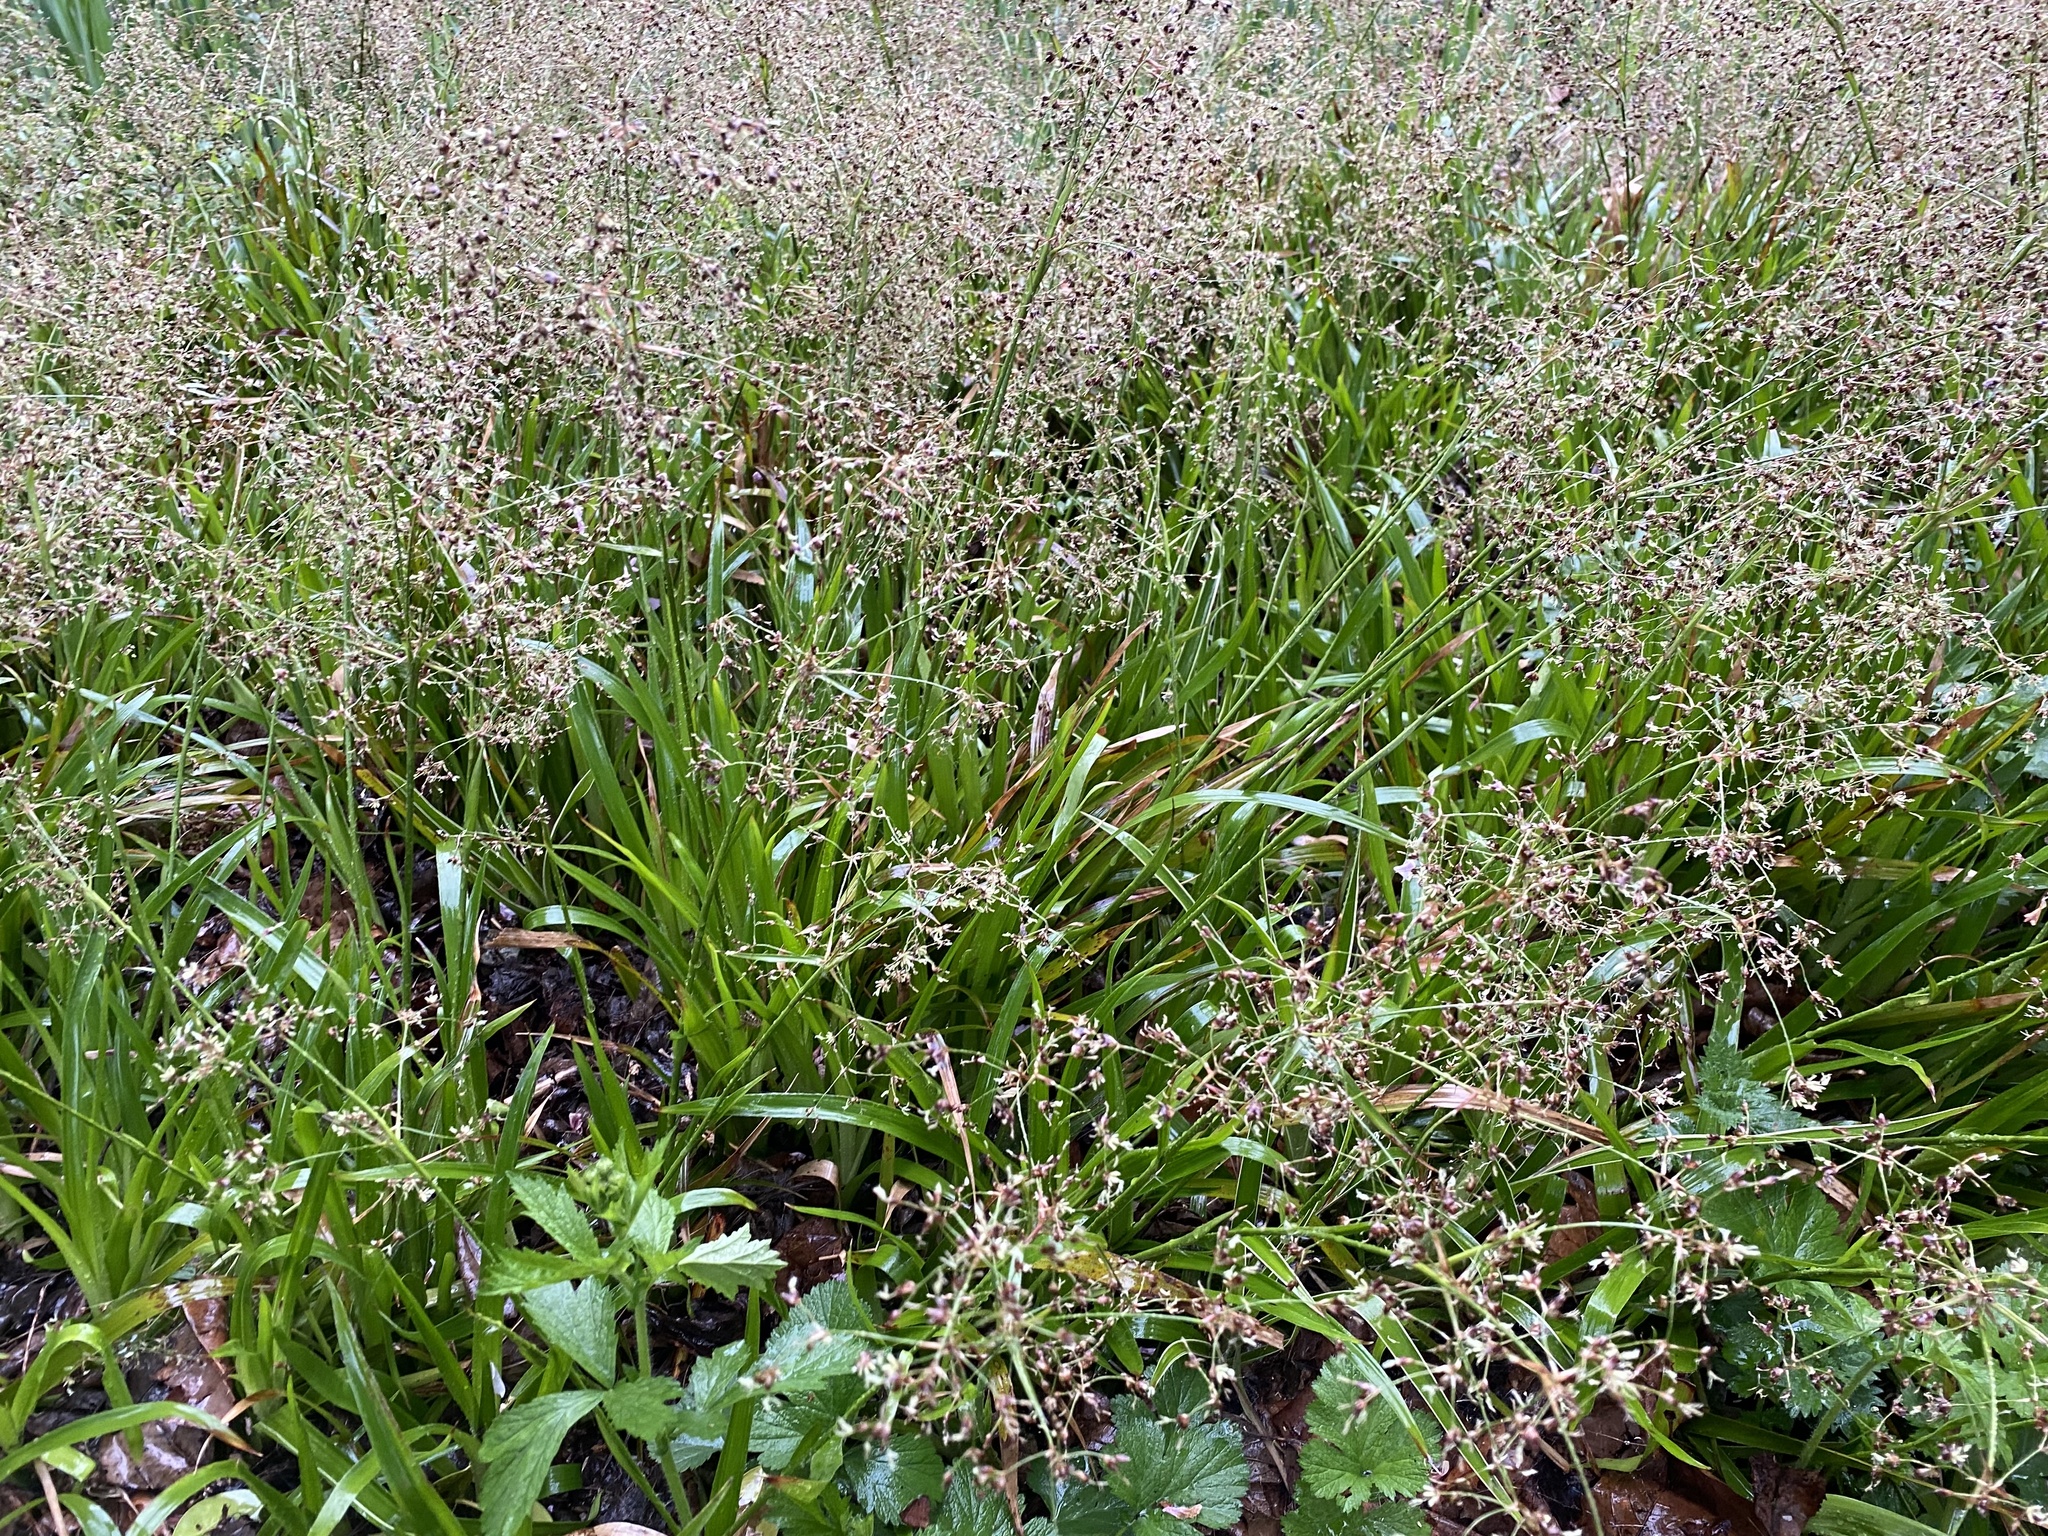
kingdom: Plantae
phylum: Tracheophyta
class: Liliopsida
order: Poales
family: Juncaceae
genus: Luzula
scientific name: Luzula sylvatica
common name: Great wood-rush
